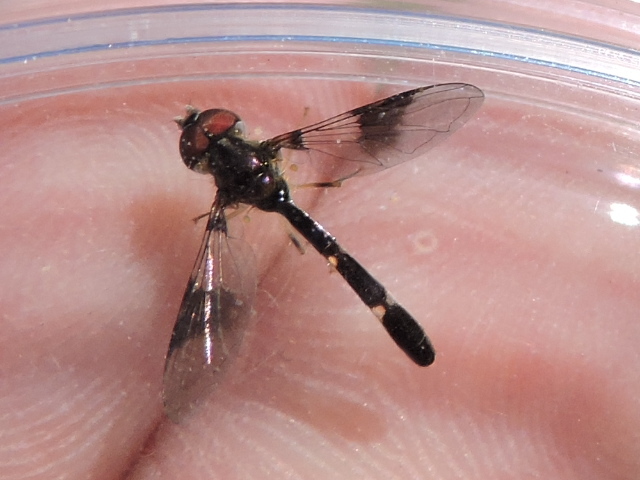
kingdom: Animalia
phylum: Arthropoda
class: Insecta
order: Diptera
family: Syrphidae
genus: Hypocritanus
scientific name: Hypocritanus fascipennis
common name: Eastern band-winged hover fly
